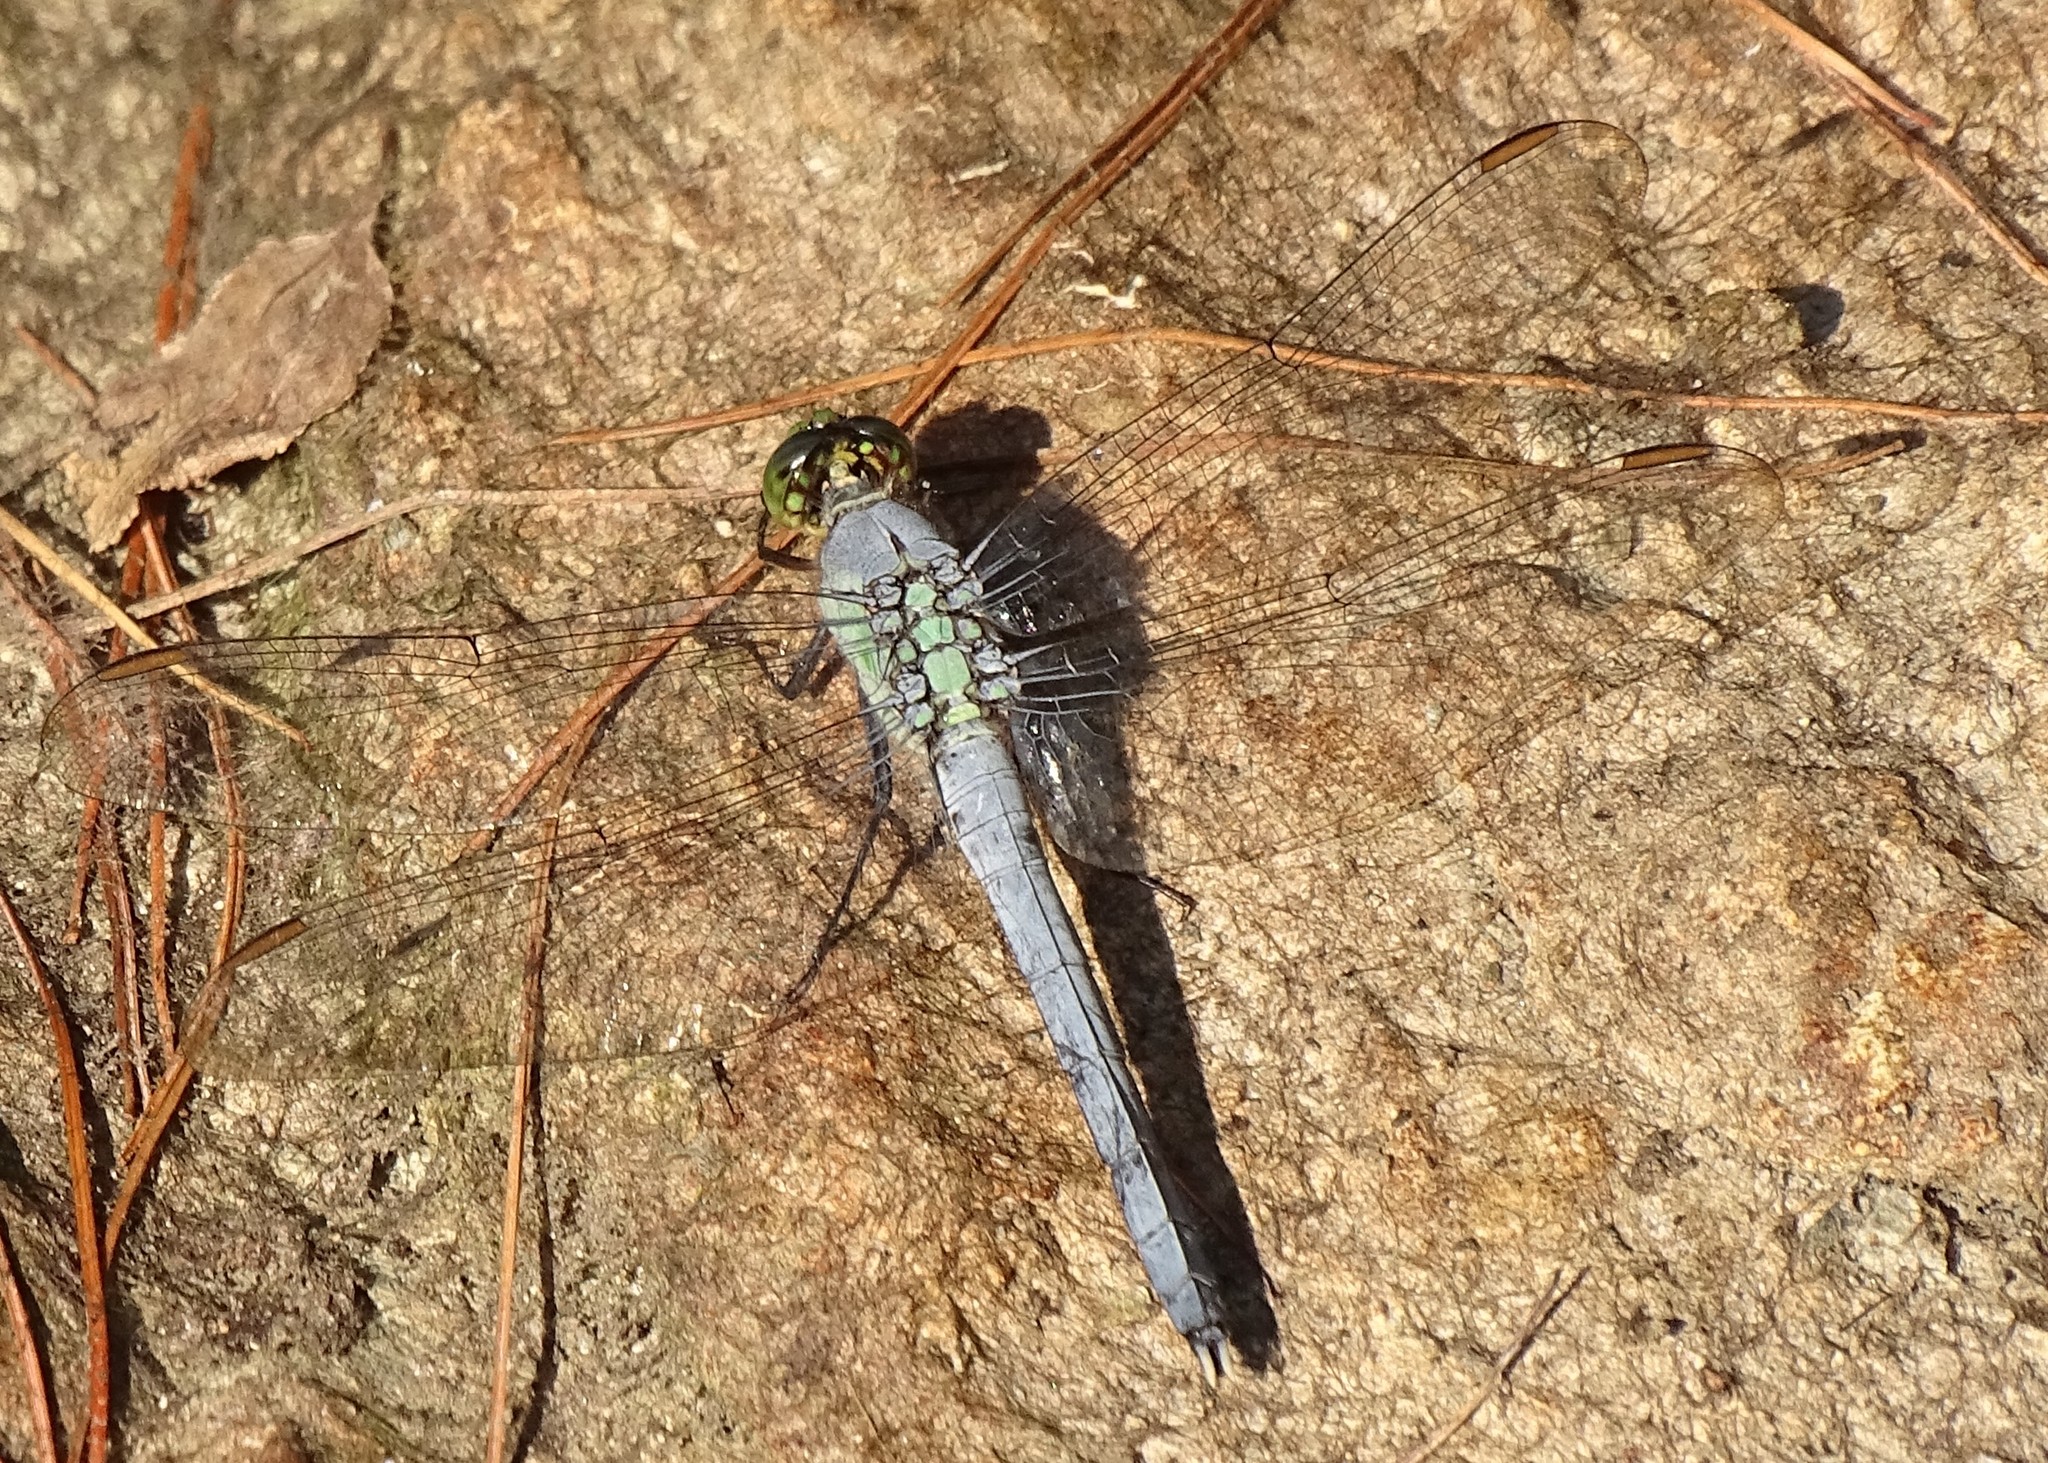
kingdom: Animalia
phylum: Arthropoda
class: Insecta
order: Odonata
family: Libellulidae
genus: Erythemis
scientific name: Erythemis simplicicollis
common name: Eastern pondhawk
